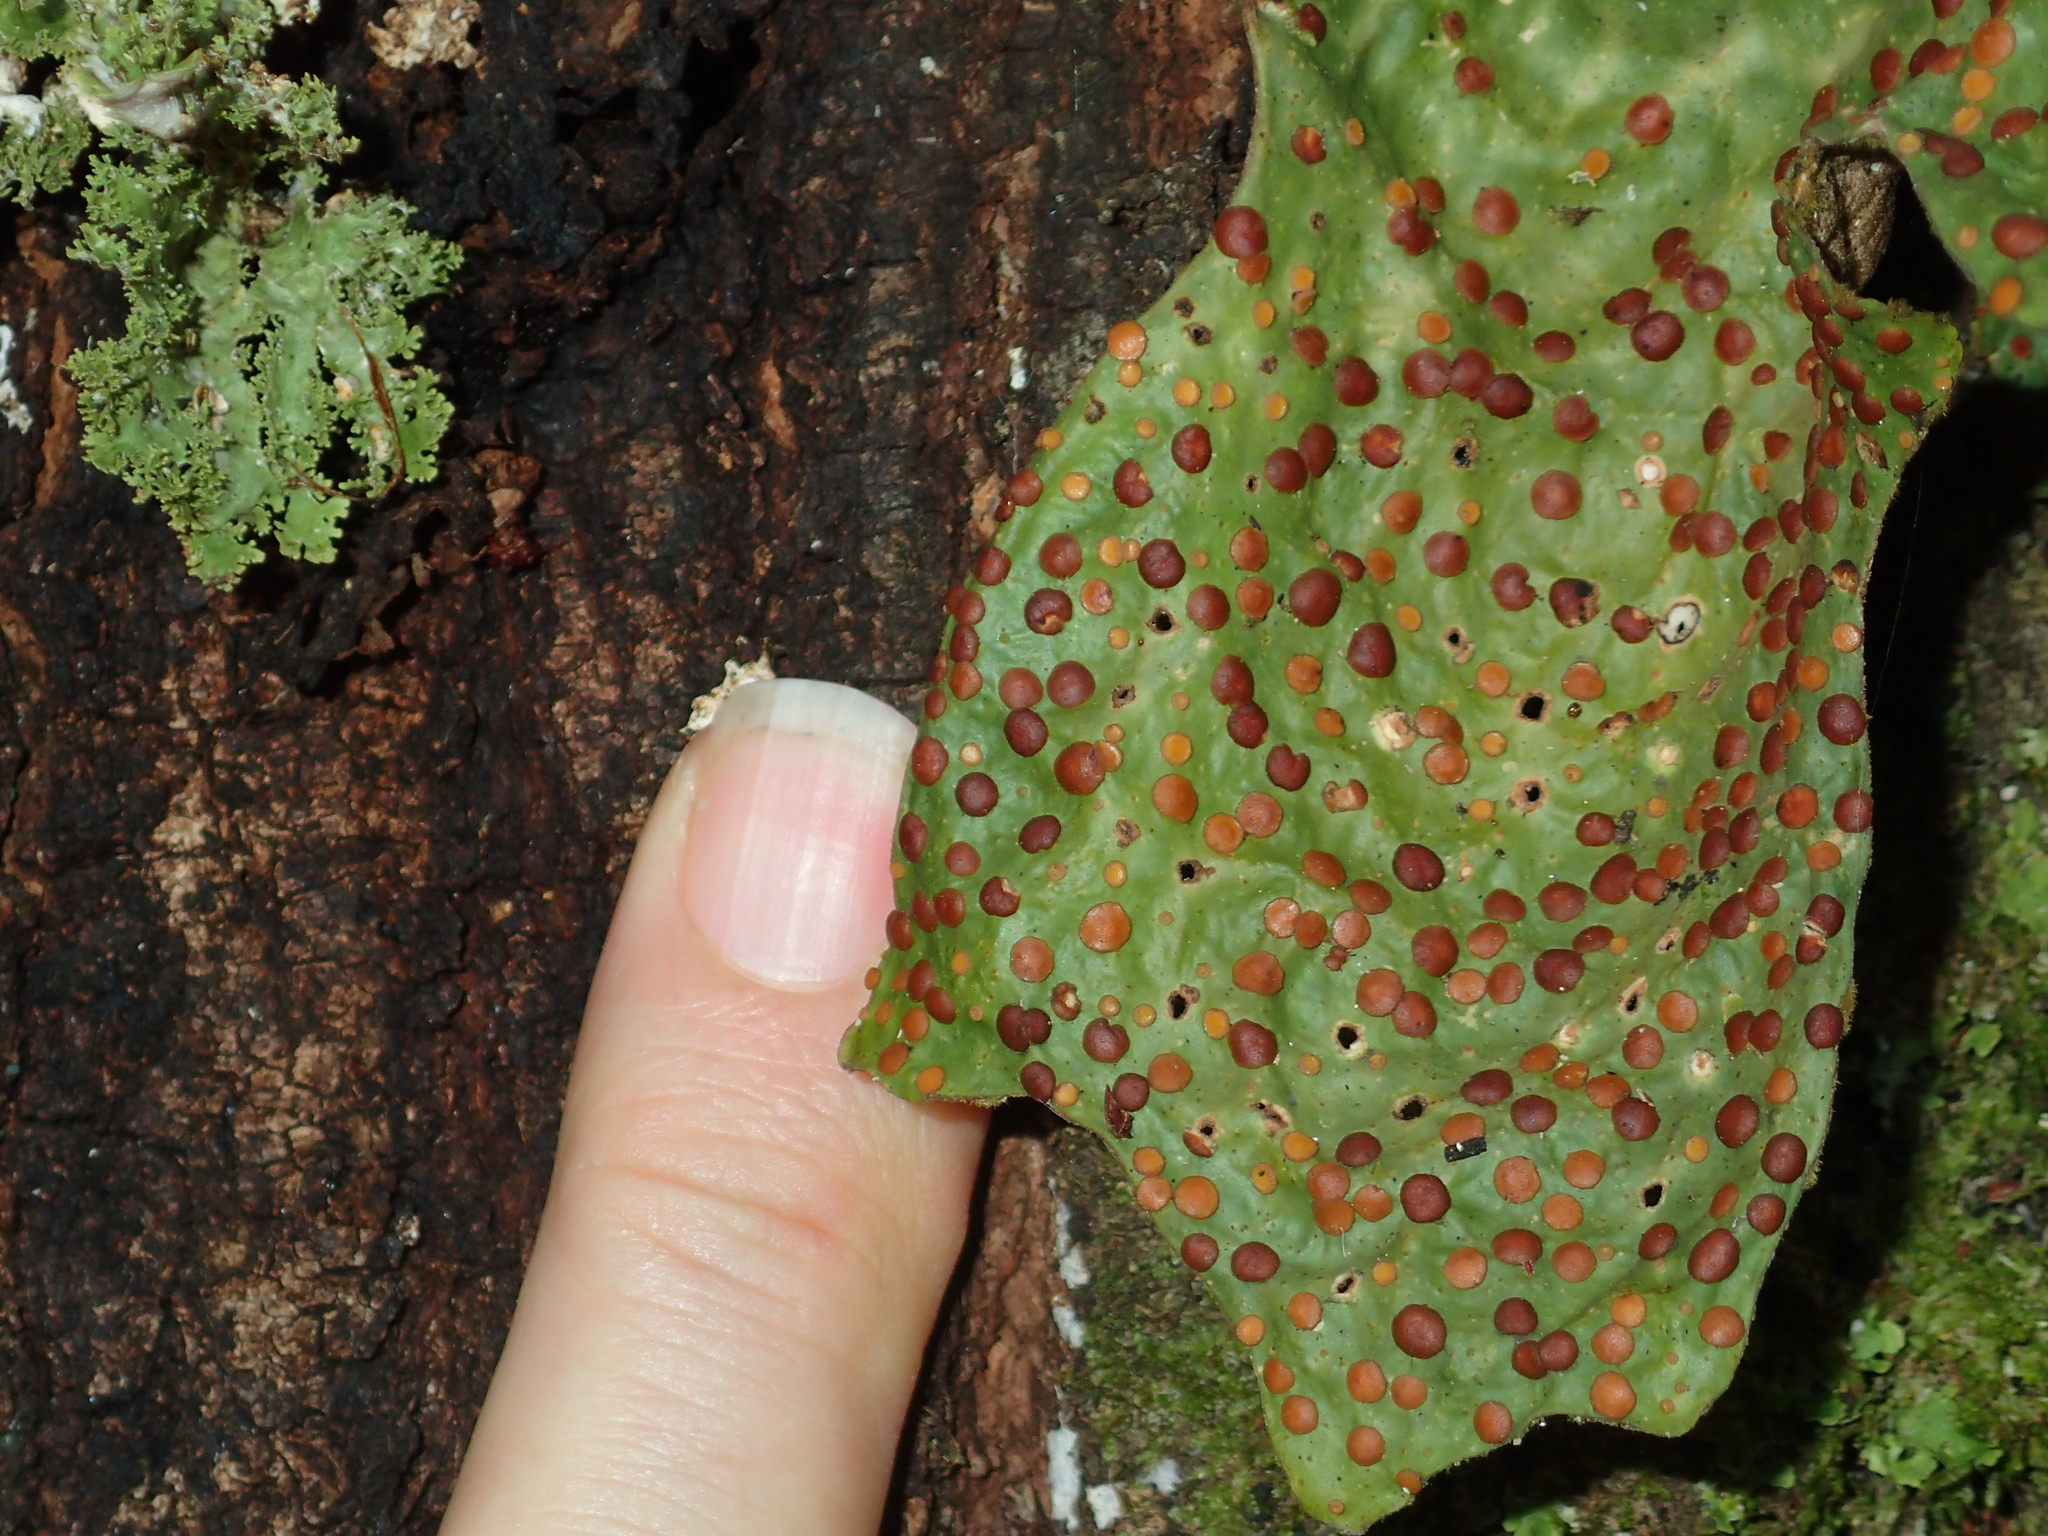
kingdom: Fungi
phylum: Ascomycota
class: Lecanoromycetes
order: Peltigerales
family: Lobariaceae
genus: Sticta
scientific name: Sticta latifrons
